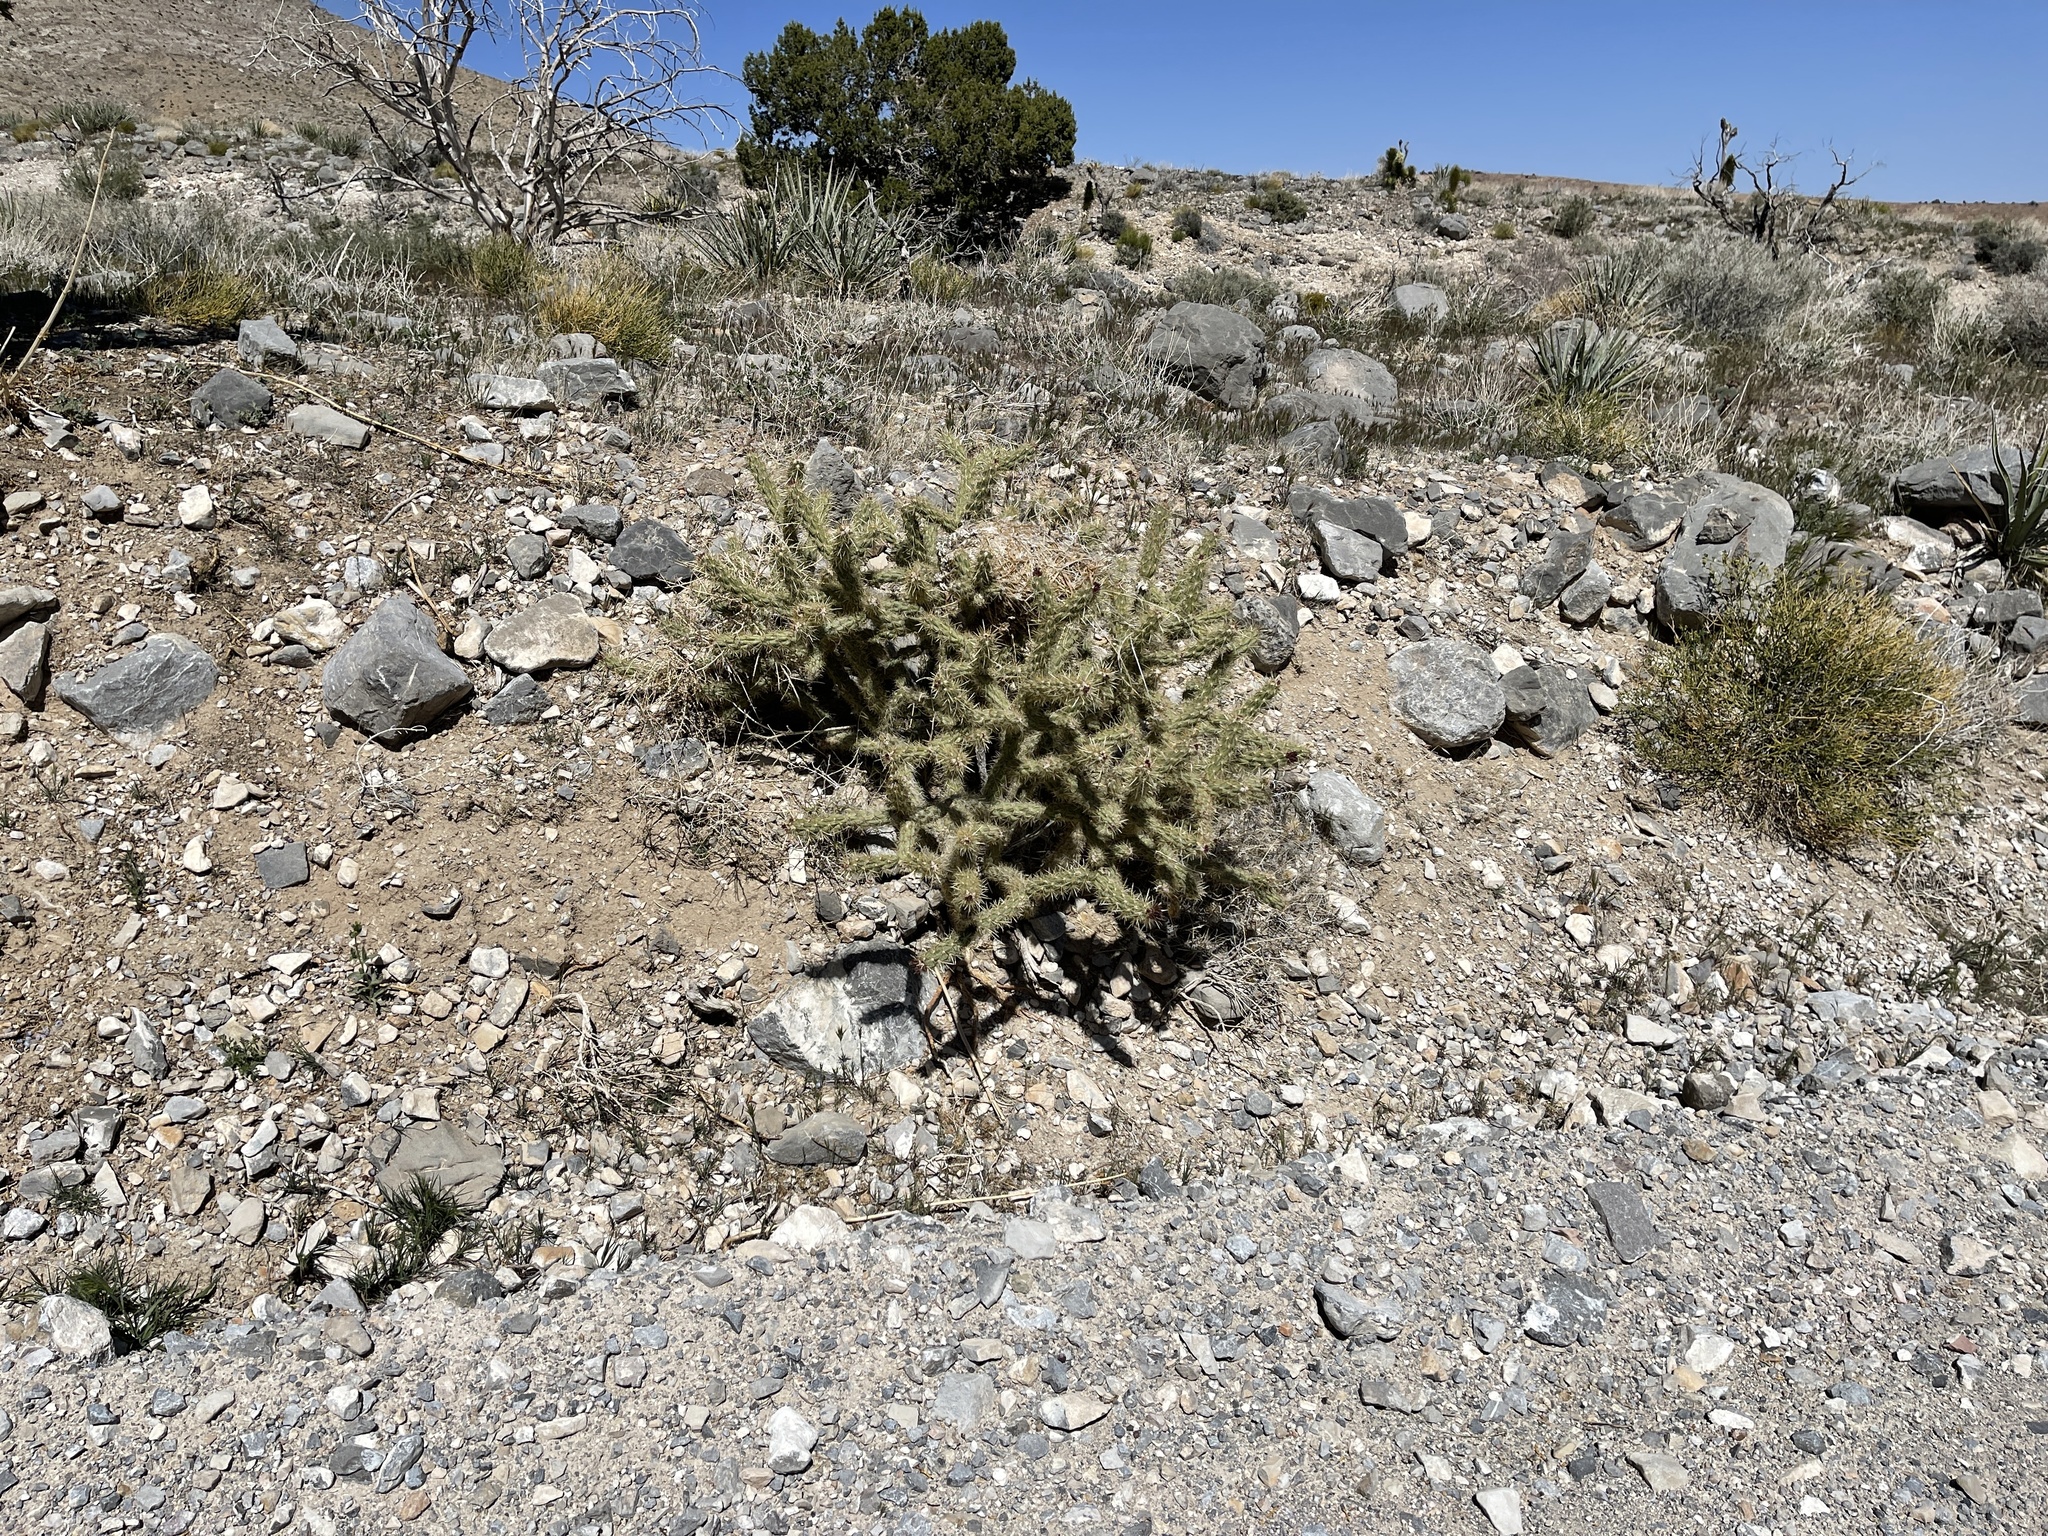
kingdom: Plantae
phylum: Tracheophyta
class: Magnoliopsida
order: Caryophyllales
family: Cactaceae
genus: Cylindropuntia
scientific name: Cylindropuntia acanthocarpa
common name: Buckhorn cholla
